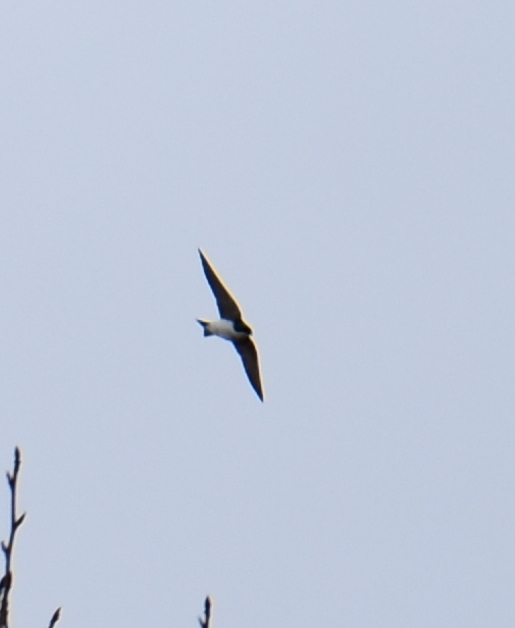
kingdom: Animalia
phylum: Chordata
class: Aves
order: Passeriformes
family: Hirundinidae
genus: Tachycineta
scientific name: Tachycineta bicolor
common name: Tree swallow
